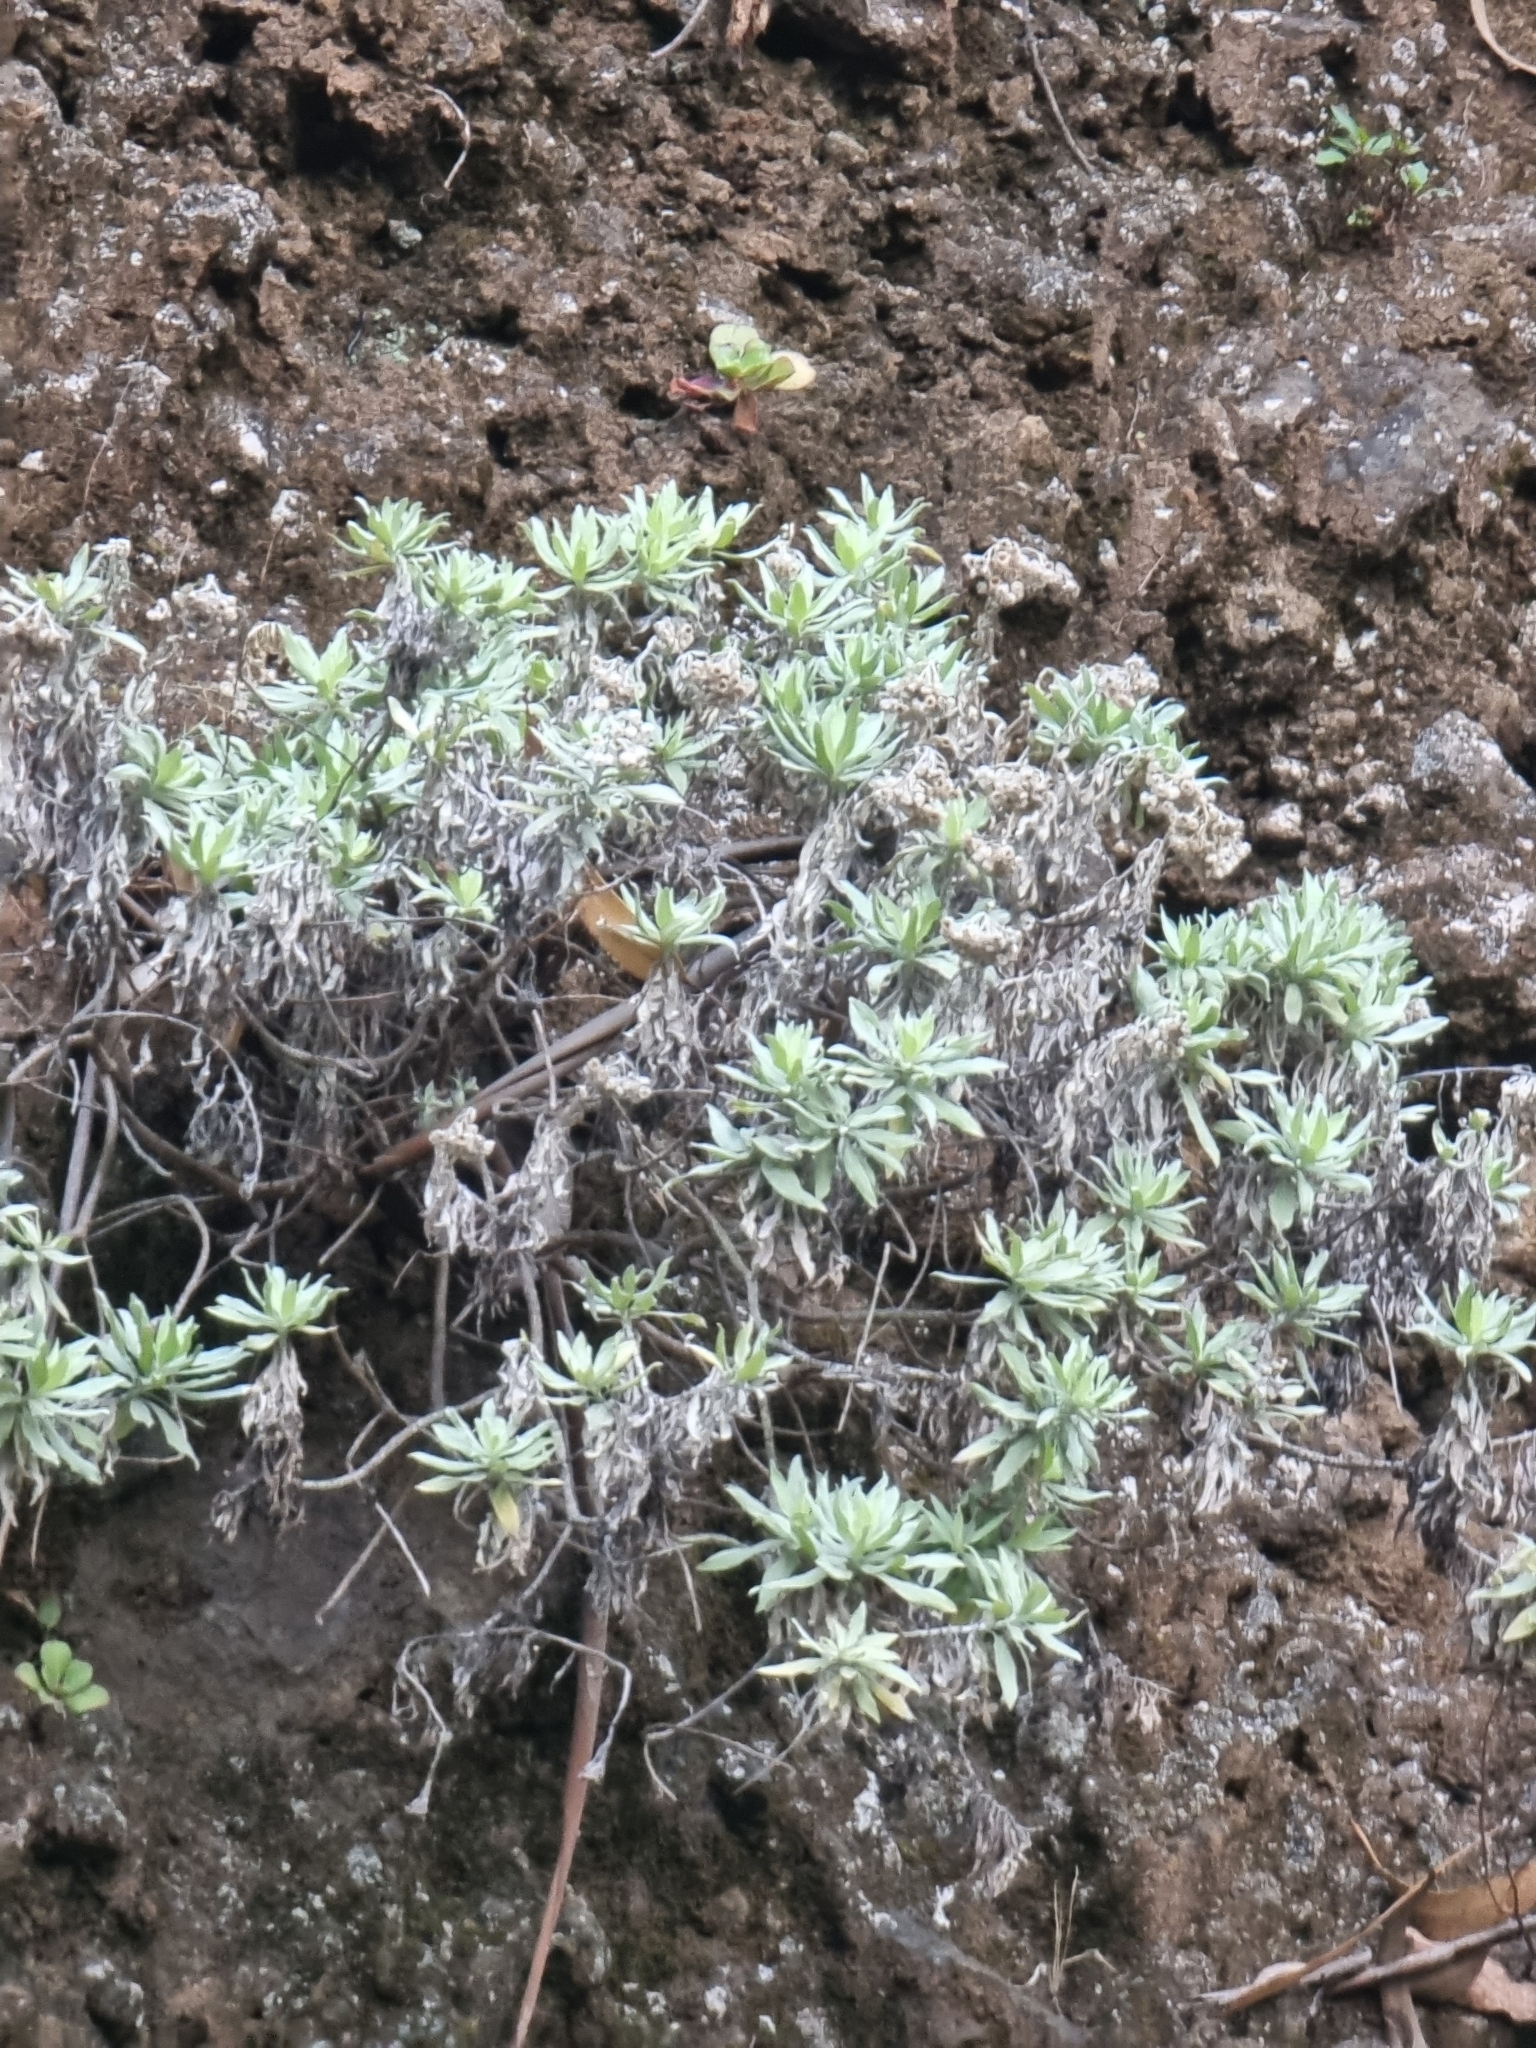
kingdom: Plantae
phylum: Tracheophyta
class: Magnoliopsida
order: Asterales
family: Asteraceae
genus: Helichrysum
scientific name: Helichrysum melaleucum
